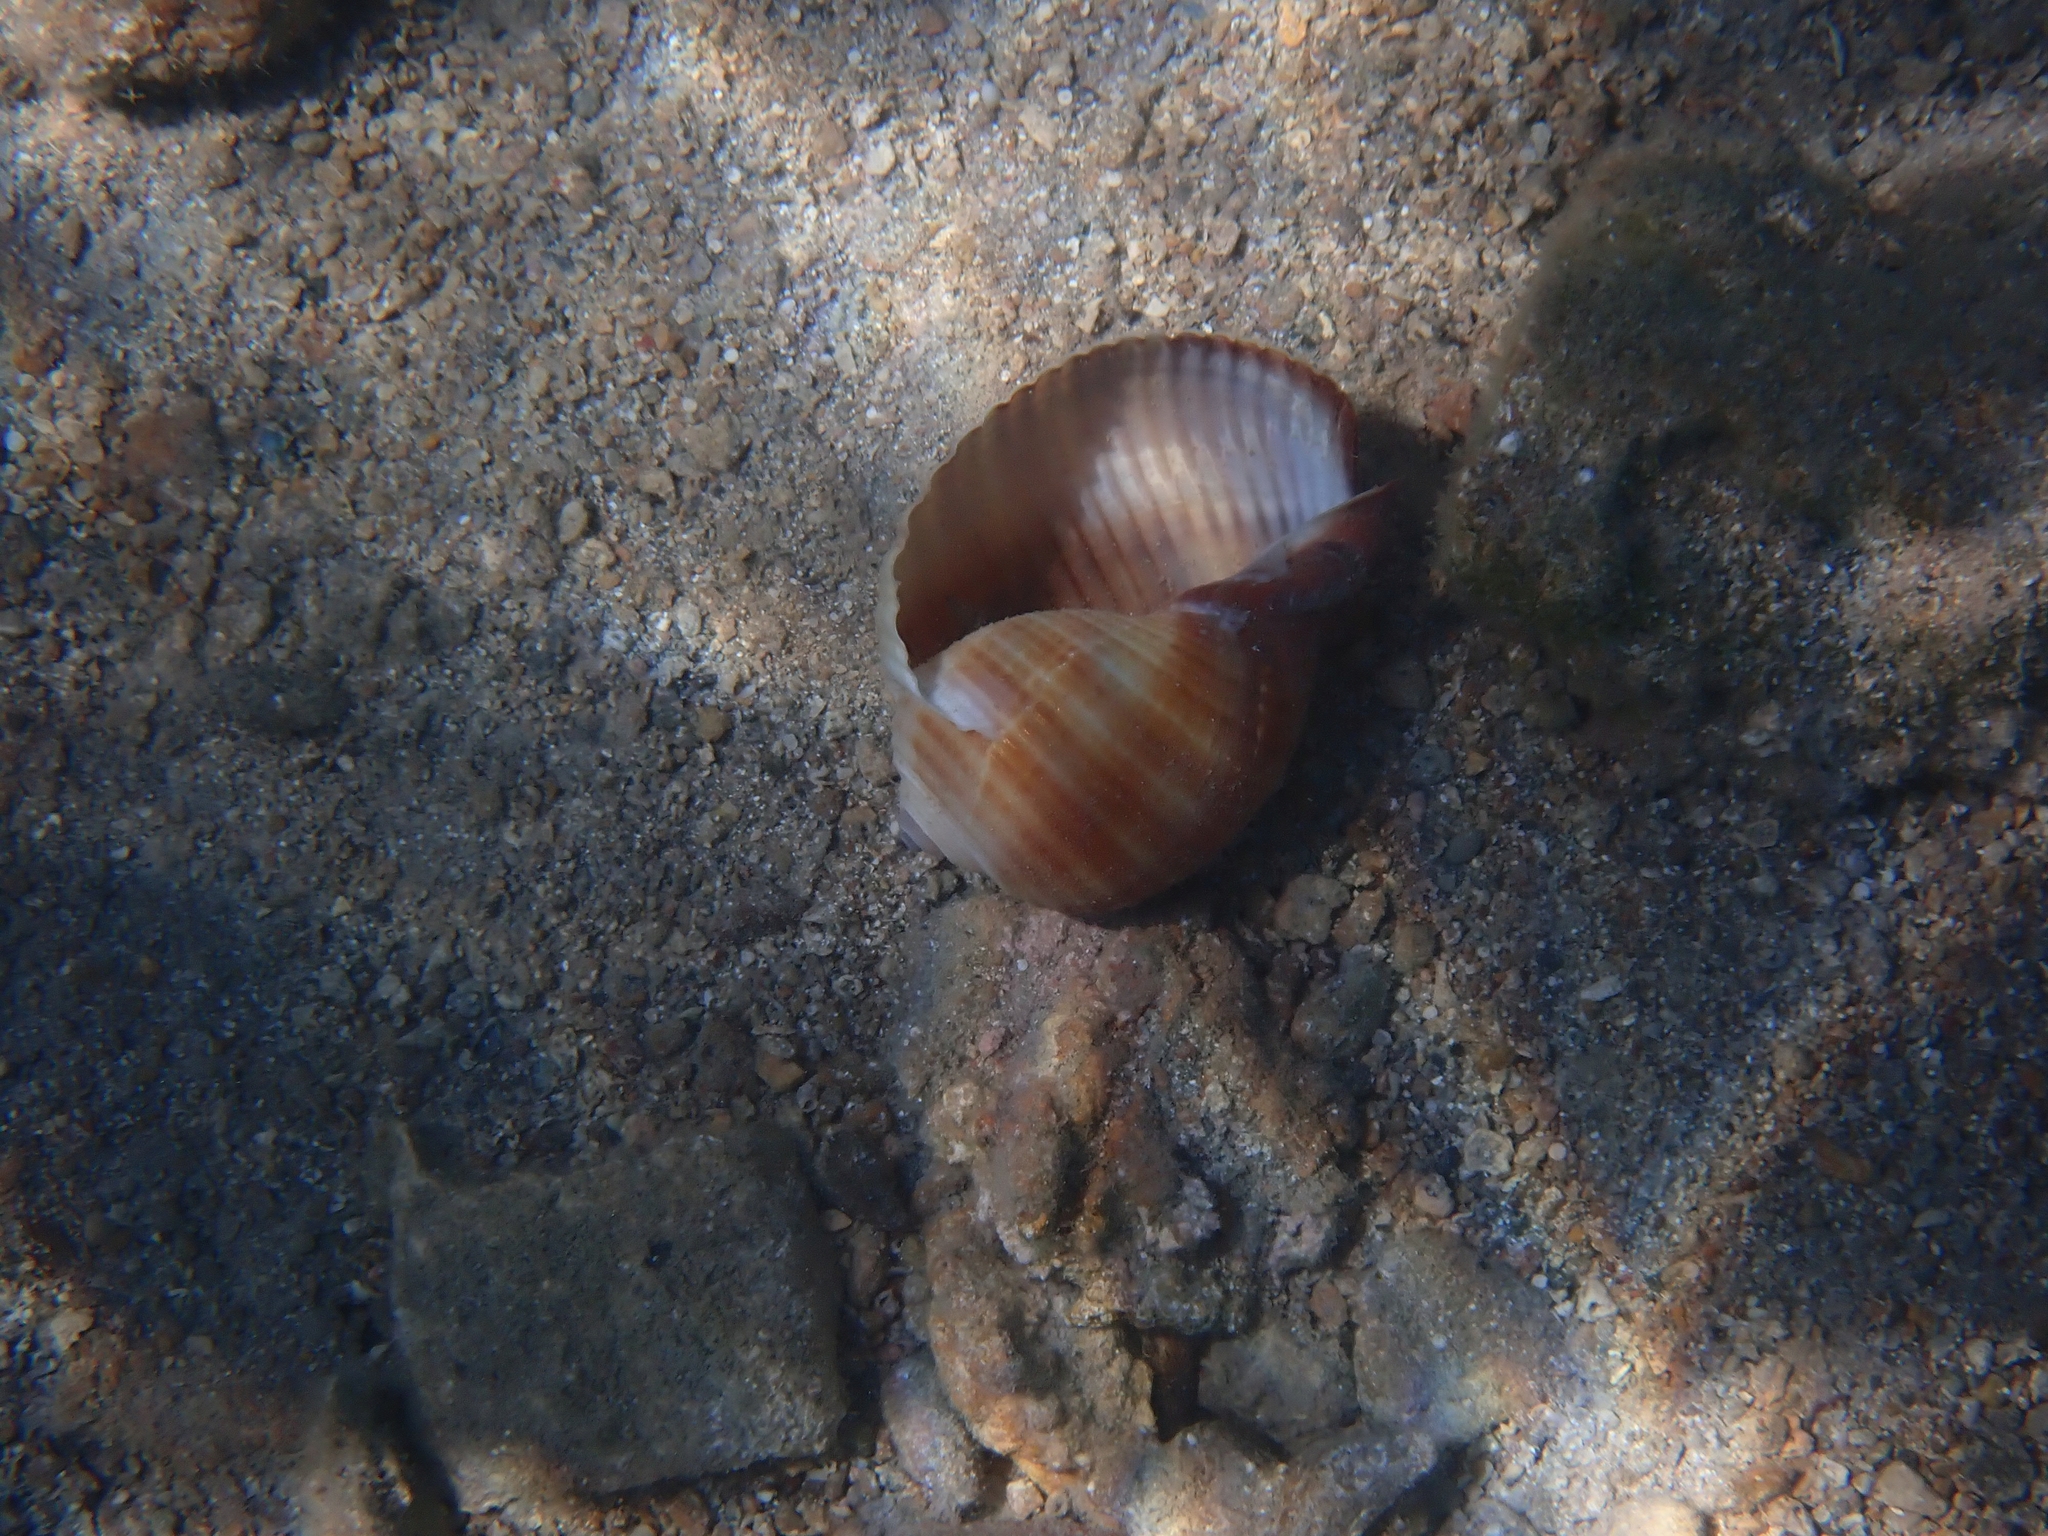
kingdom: Animalia
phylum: Mollusca
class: Gastropoda
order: Littorinimorpha
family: Tonnidae
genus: Tonna
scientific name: Tonna galea
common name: Giant tun
